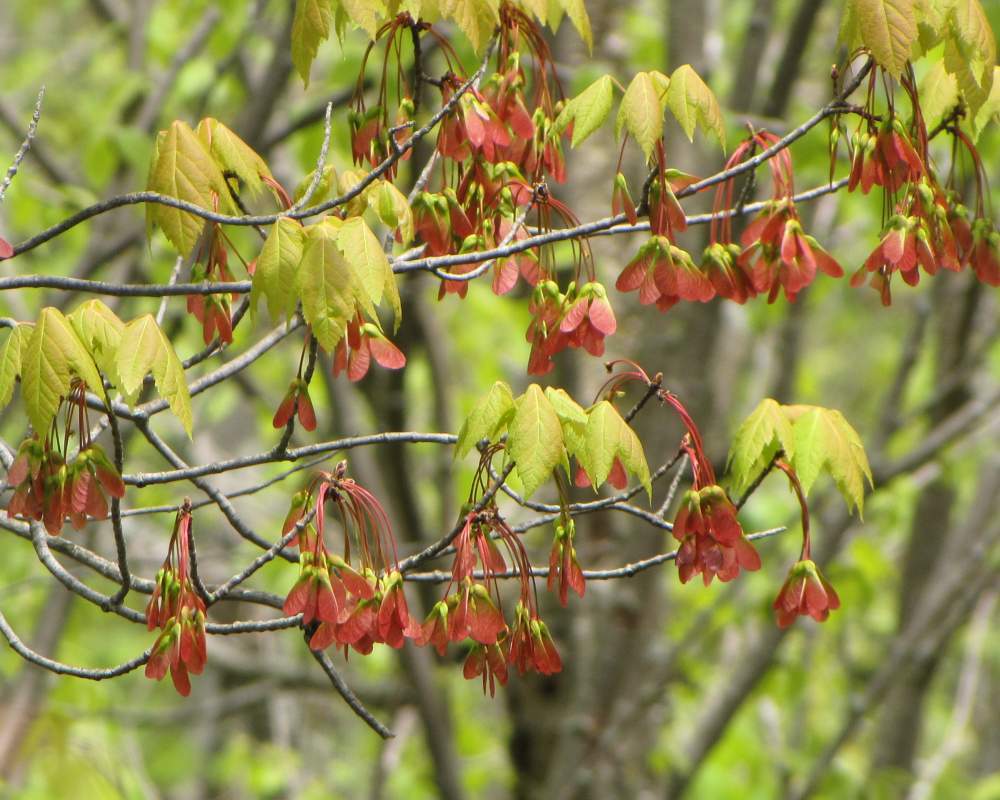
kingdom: Plantae
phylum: Tracheophyta
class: Magnoliopsida
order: Sapindales
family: Sapindaceae
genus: Acer
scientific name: Acer rubrum
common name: Red maple
